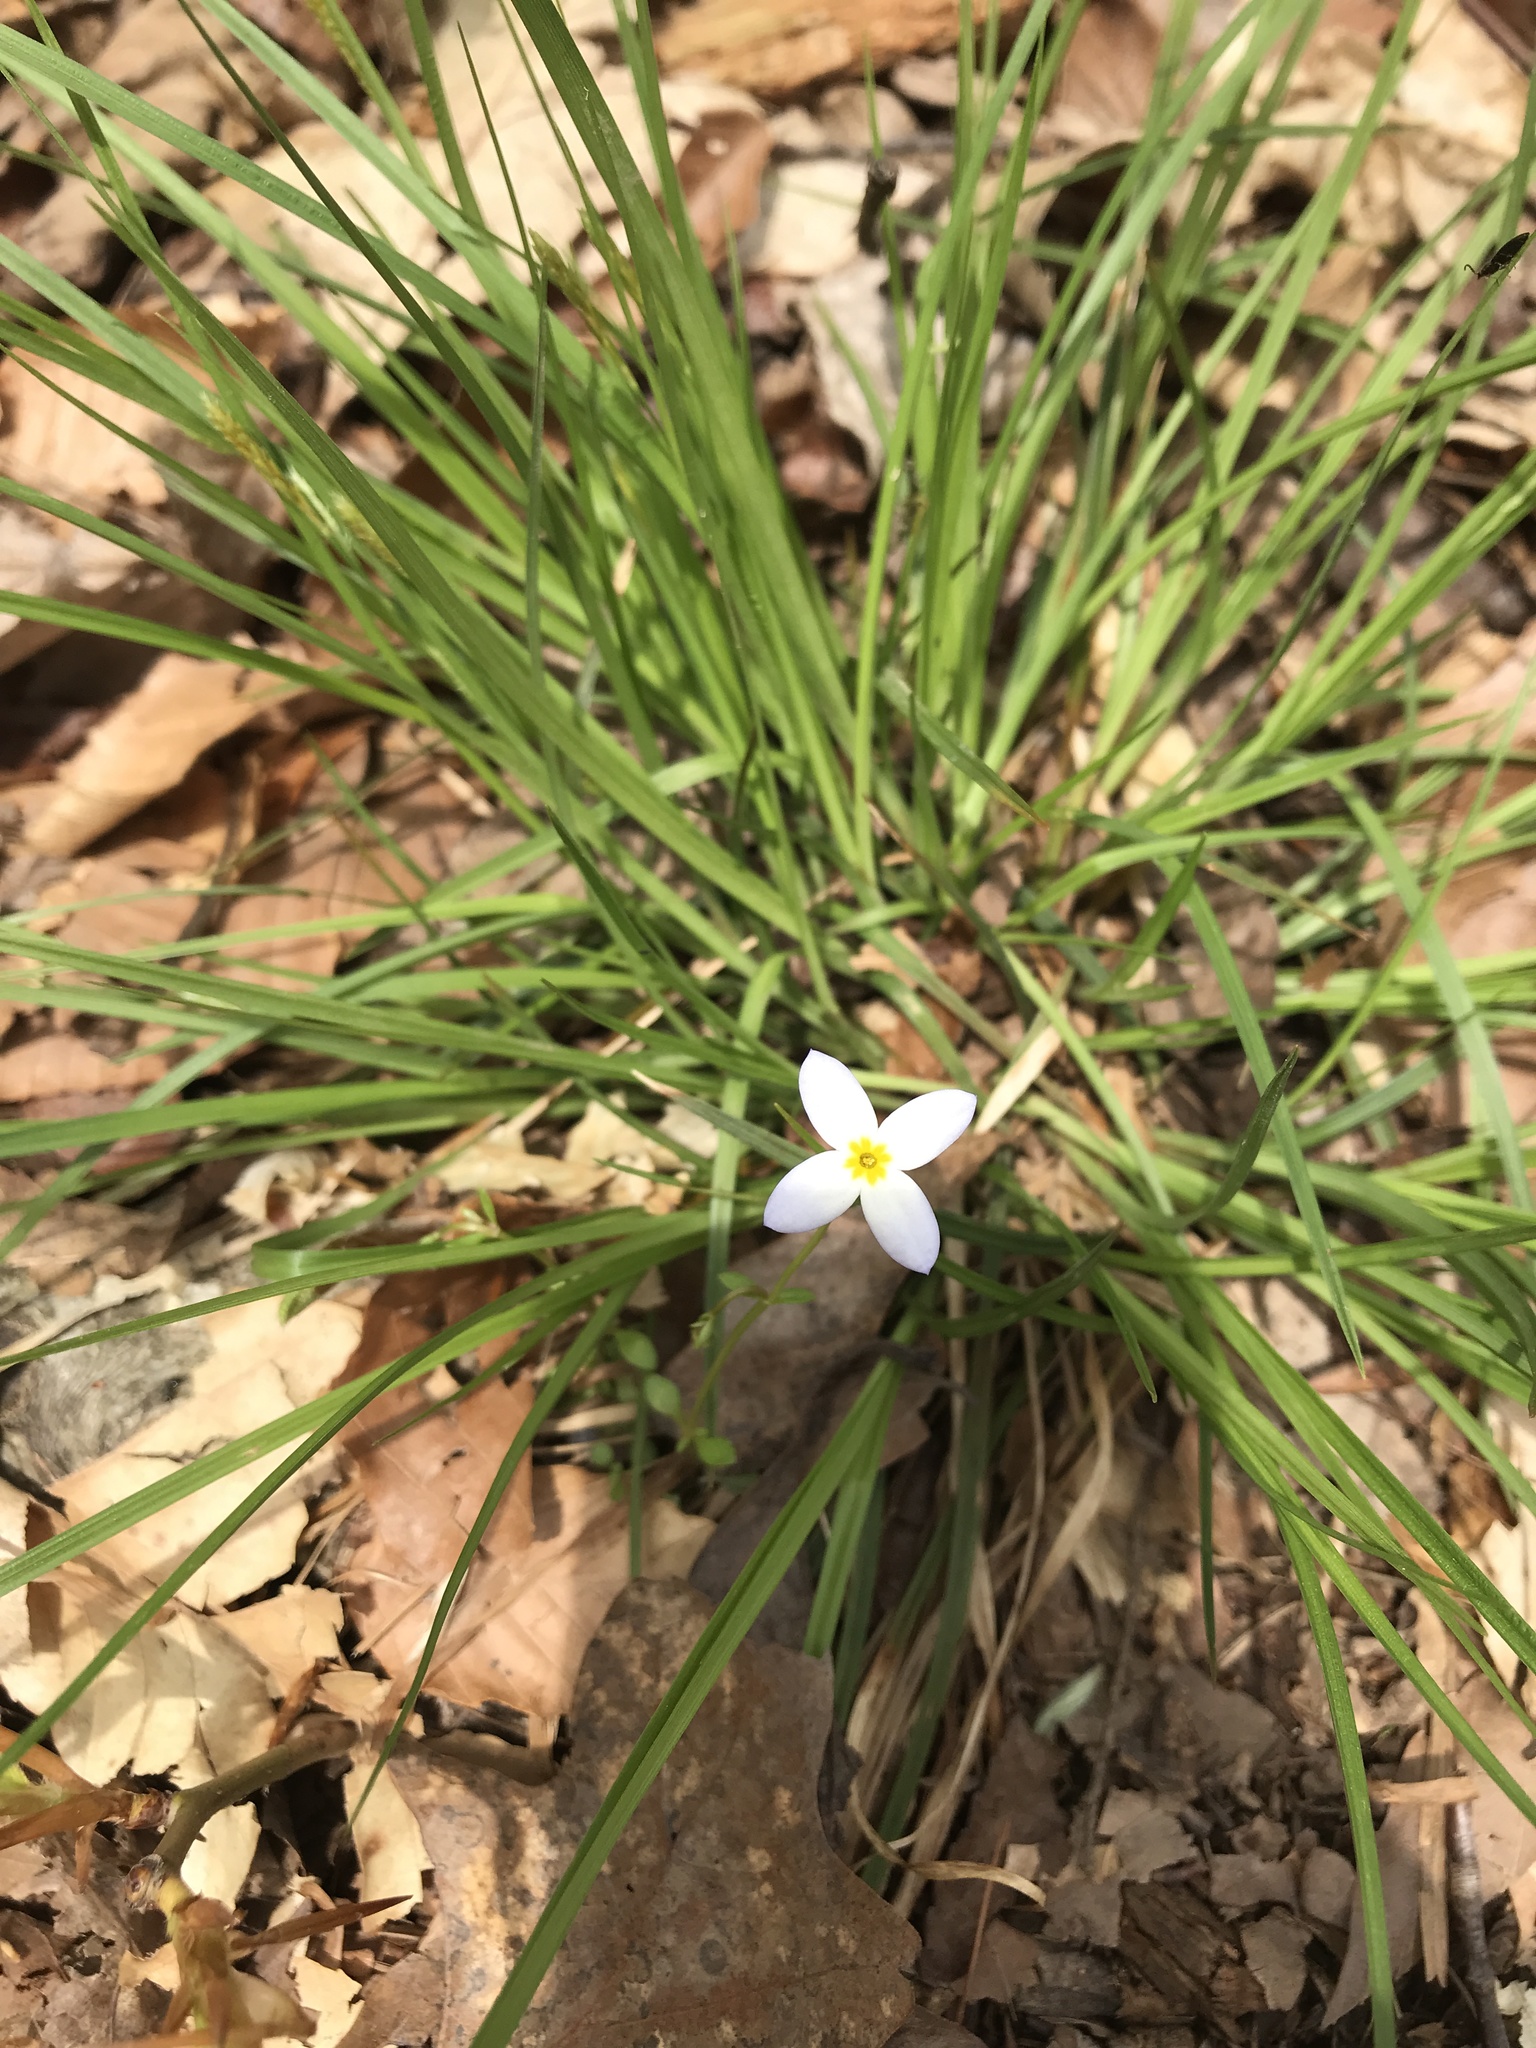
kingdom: Plantae
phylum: Tracheophyta
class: Magnoliopsida
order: Gentianales
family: Rubiaceae
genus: Houstonia
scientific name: Houstonia caerulea
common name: Bluets
